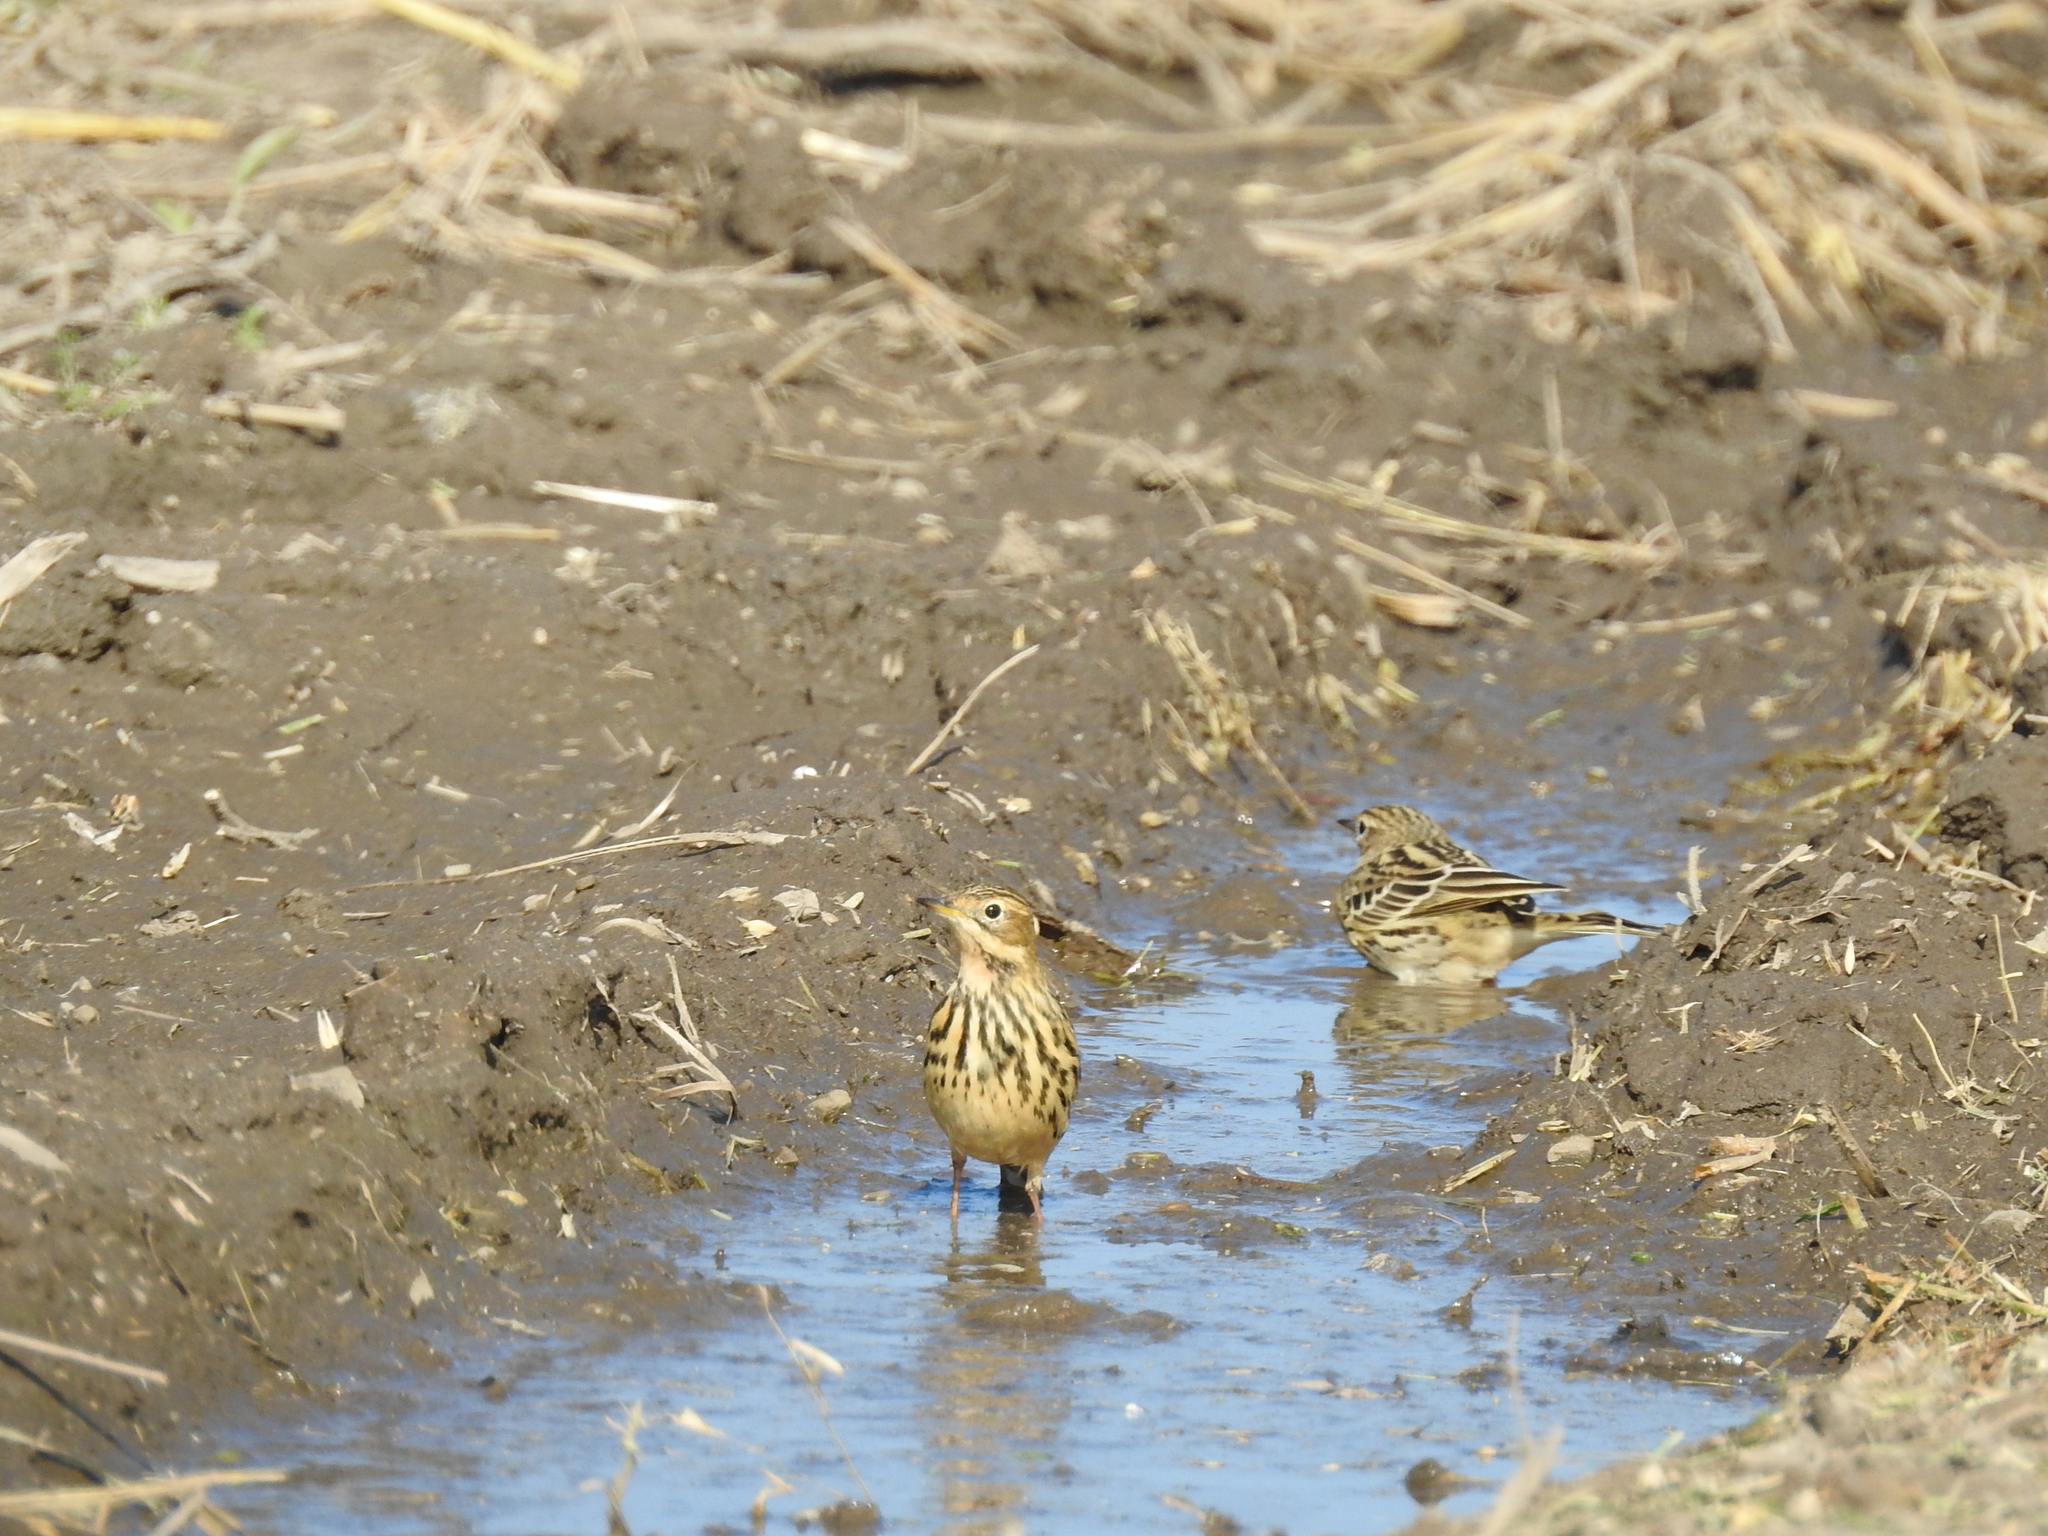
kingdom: Animalia
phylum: Chordata
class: Aves
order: Passeriformes
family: Motacillidae
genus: Anthus
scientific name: Anthus cervinus
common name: Red-throated pipit
